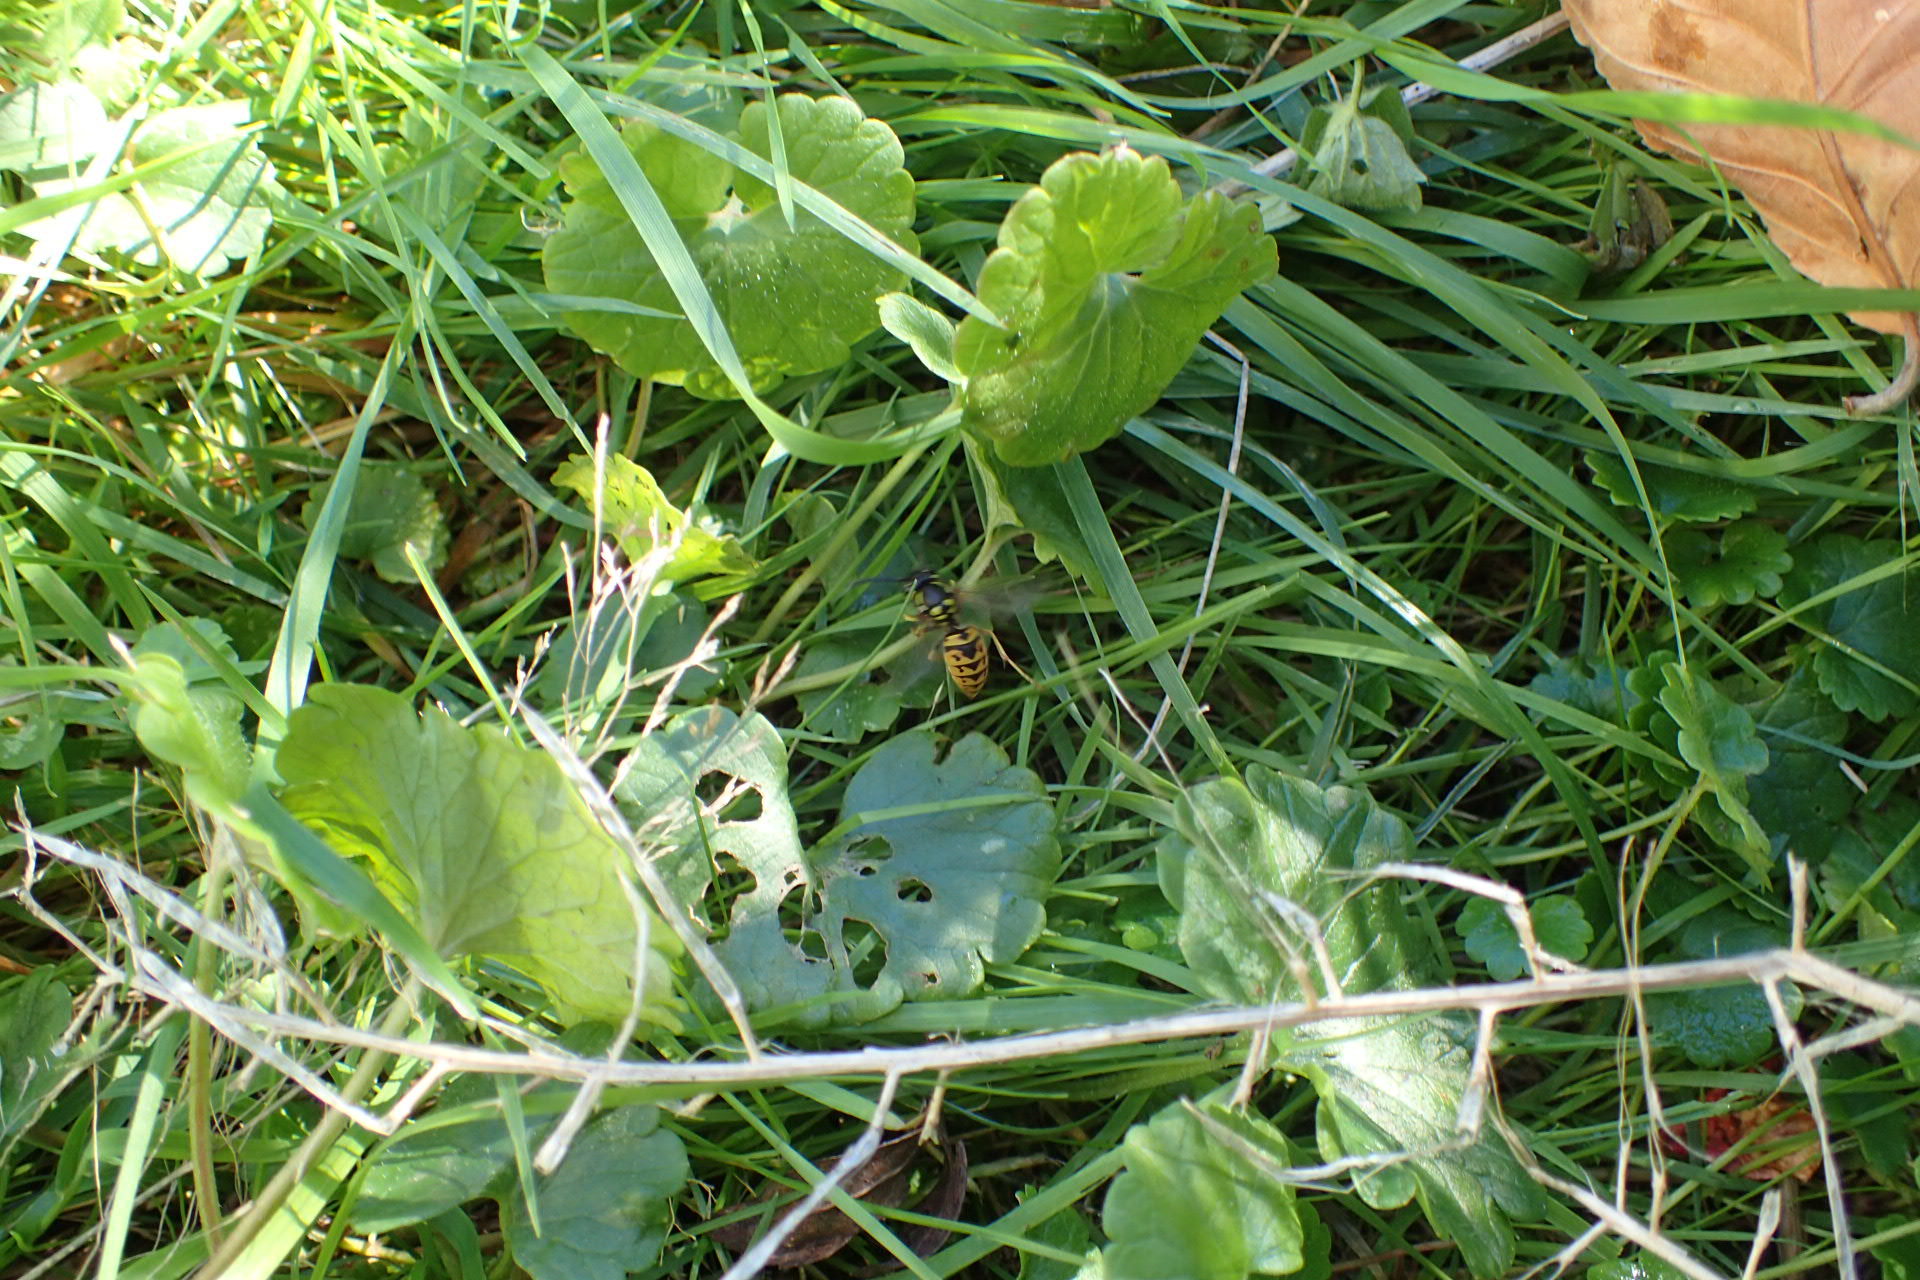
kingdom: Animalia
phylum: Arthropoda
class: Insecta
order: Hymenoptera
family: Vespidae
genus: Vespula
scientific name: Vespula germanica
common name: German wasp
